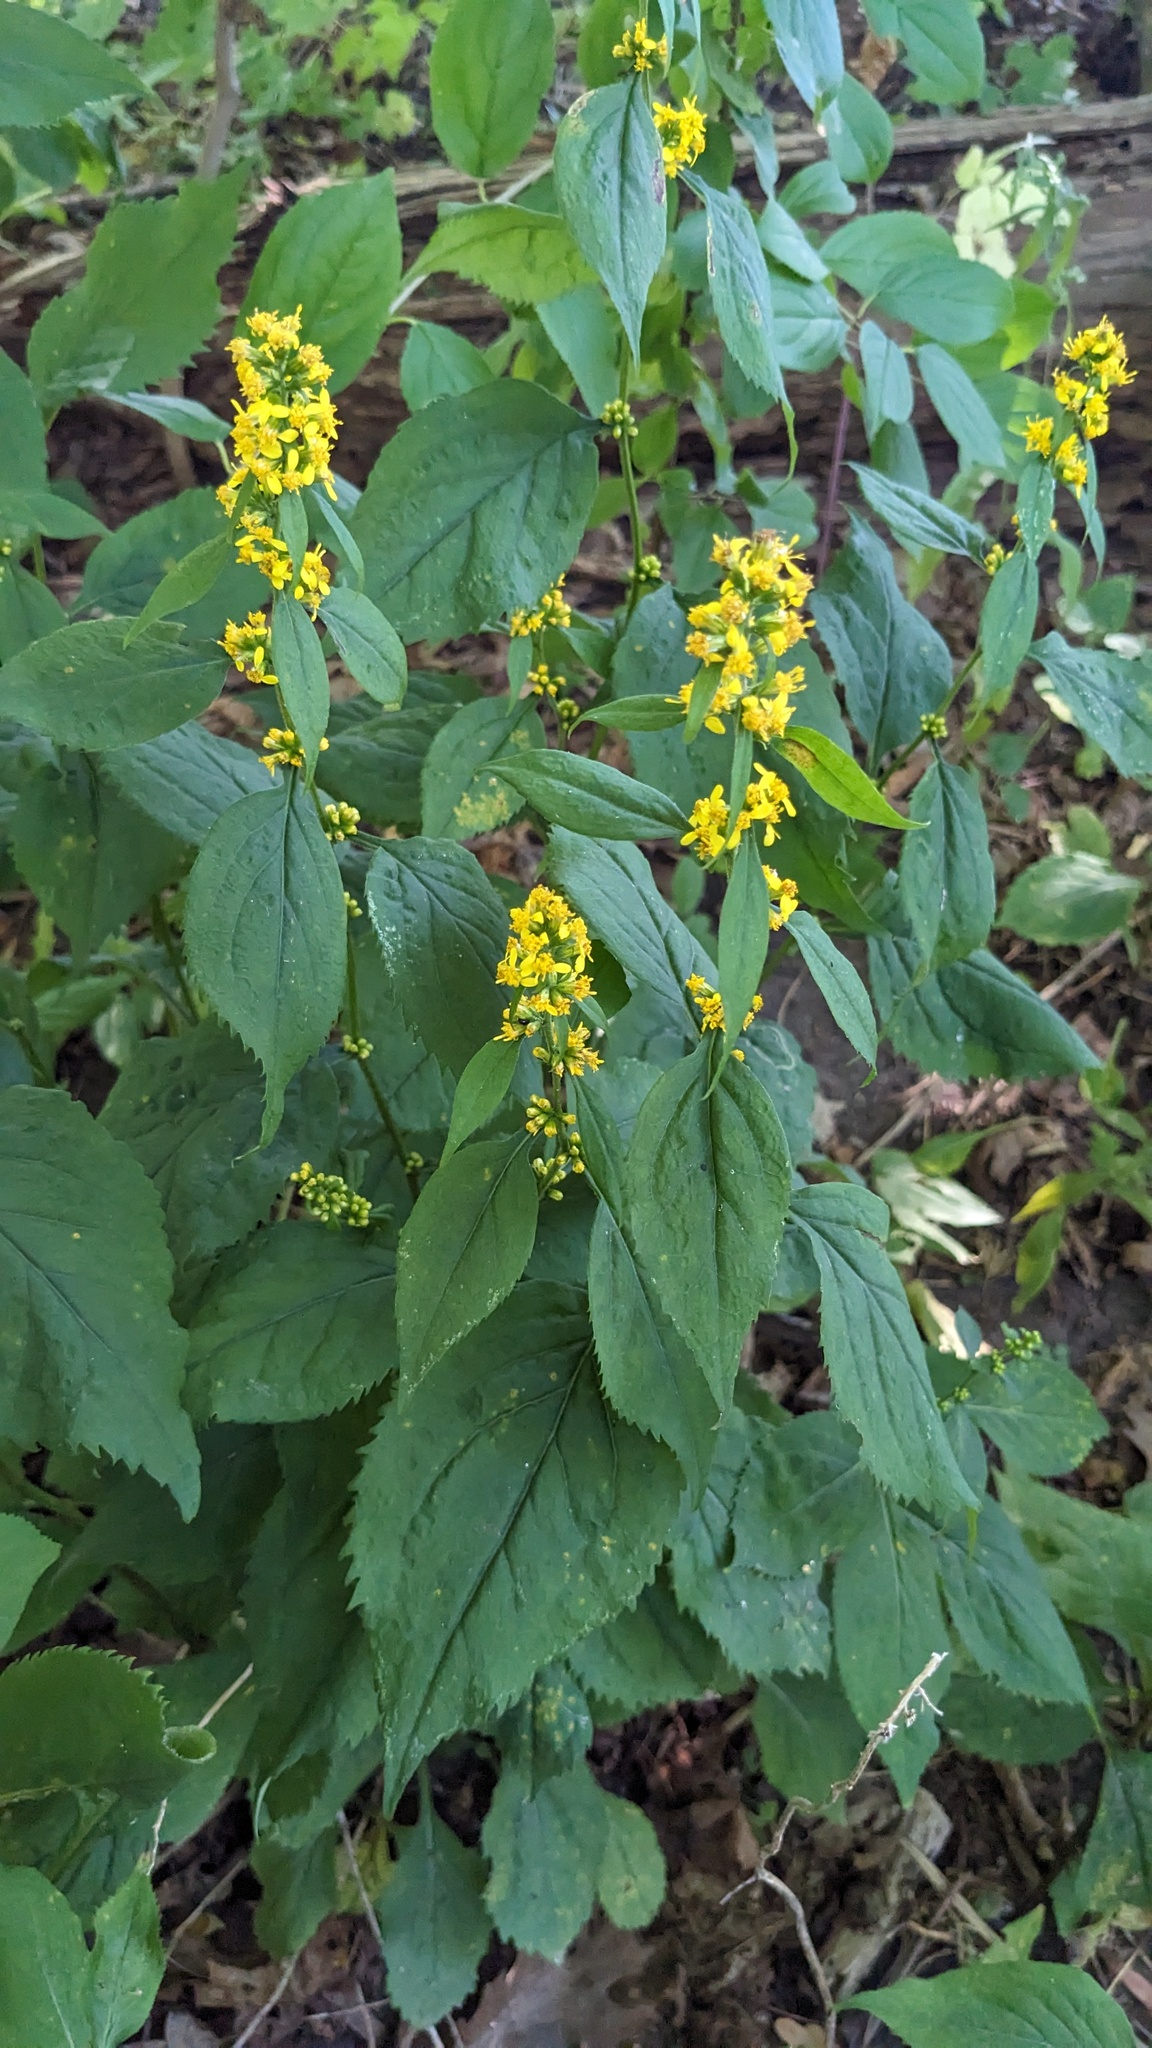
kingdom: Plantae
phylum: Tracheophyta
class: Magnoliopsida
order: Asterales
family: Asteraceae
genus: Solidago
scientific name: Solidago flexicaulis
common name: Zig-zag goldenrod
